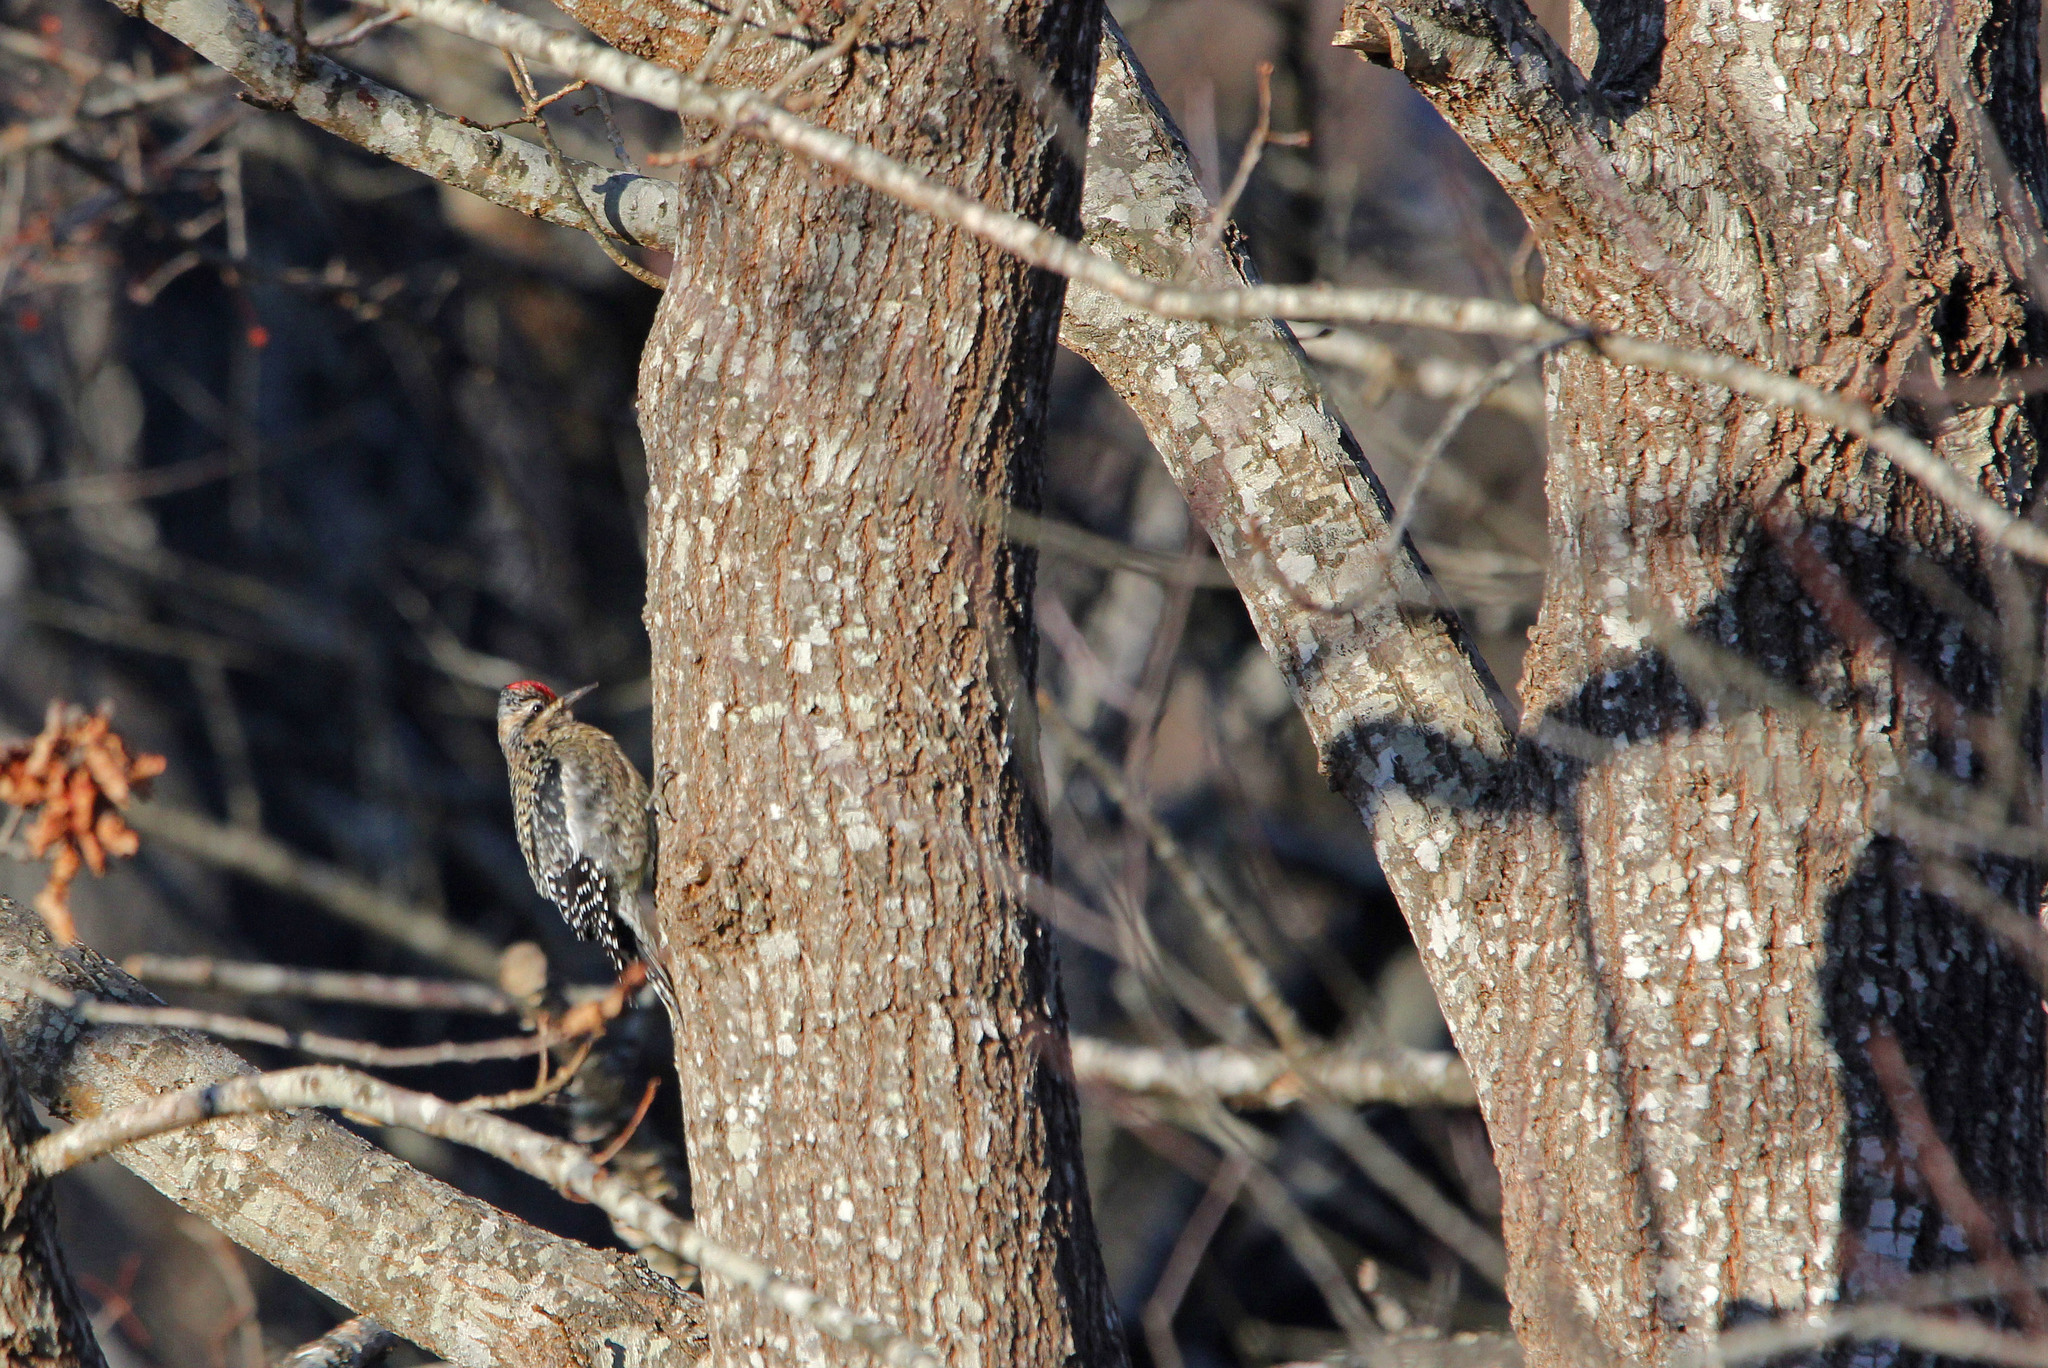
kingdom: Animalia
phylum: Chordata
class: Aves
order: Piciformes
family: Picidae
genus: Sphyrapicus
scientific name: Sphyrapicus varius
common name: Yellow-bellied sapsucker
